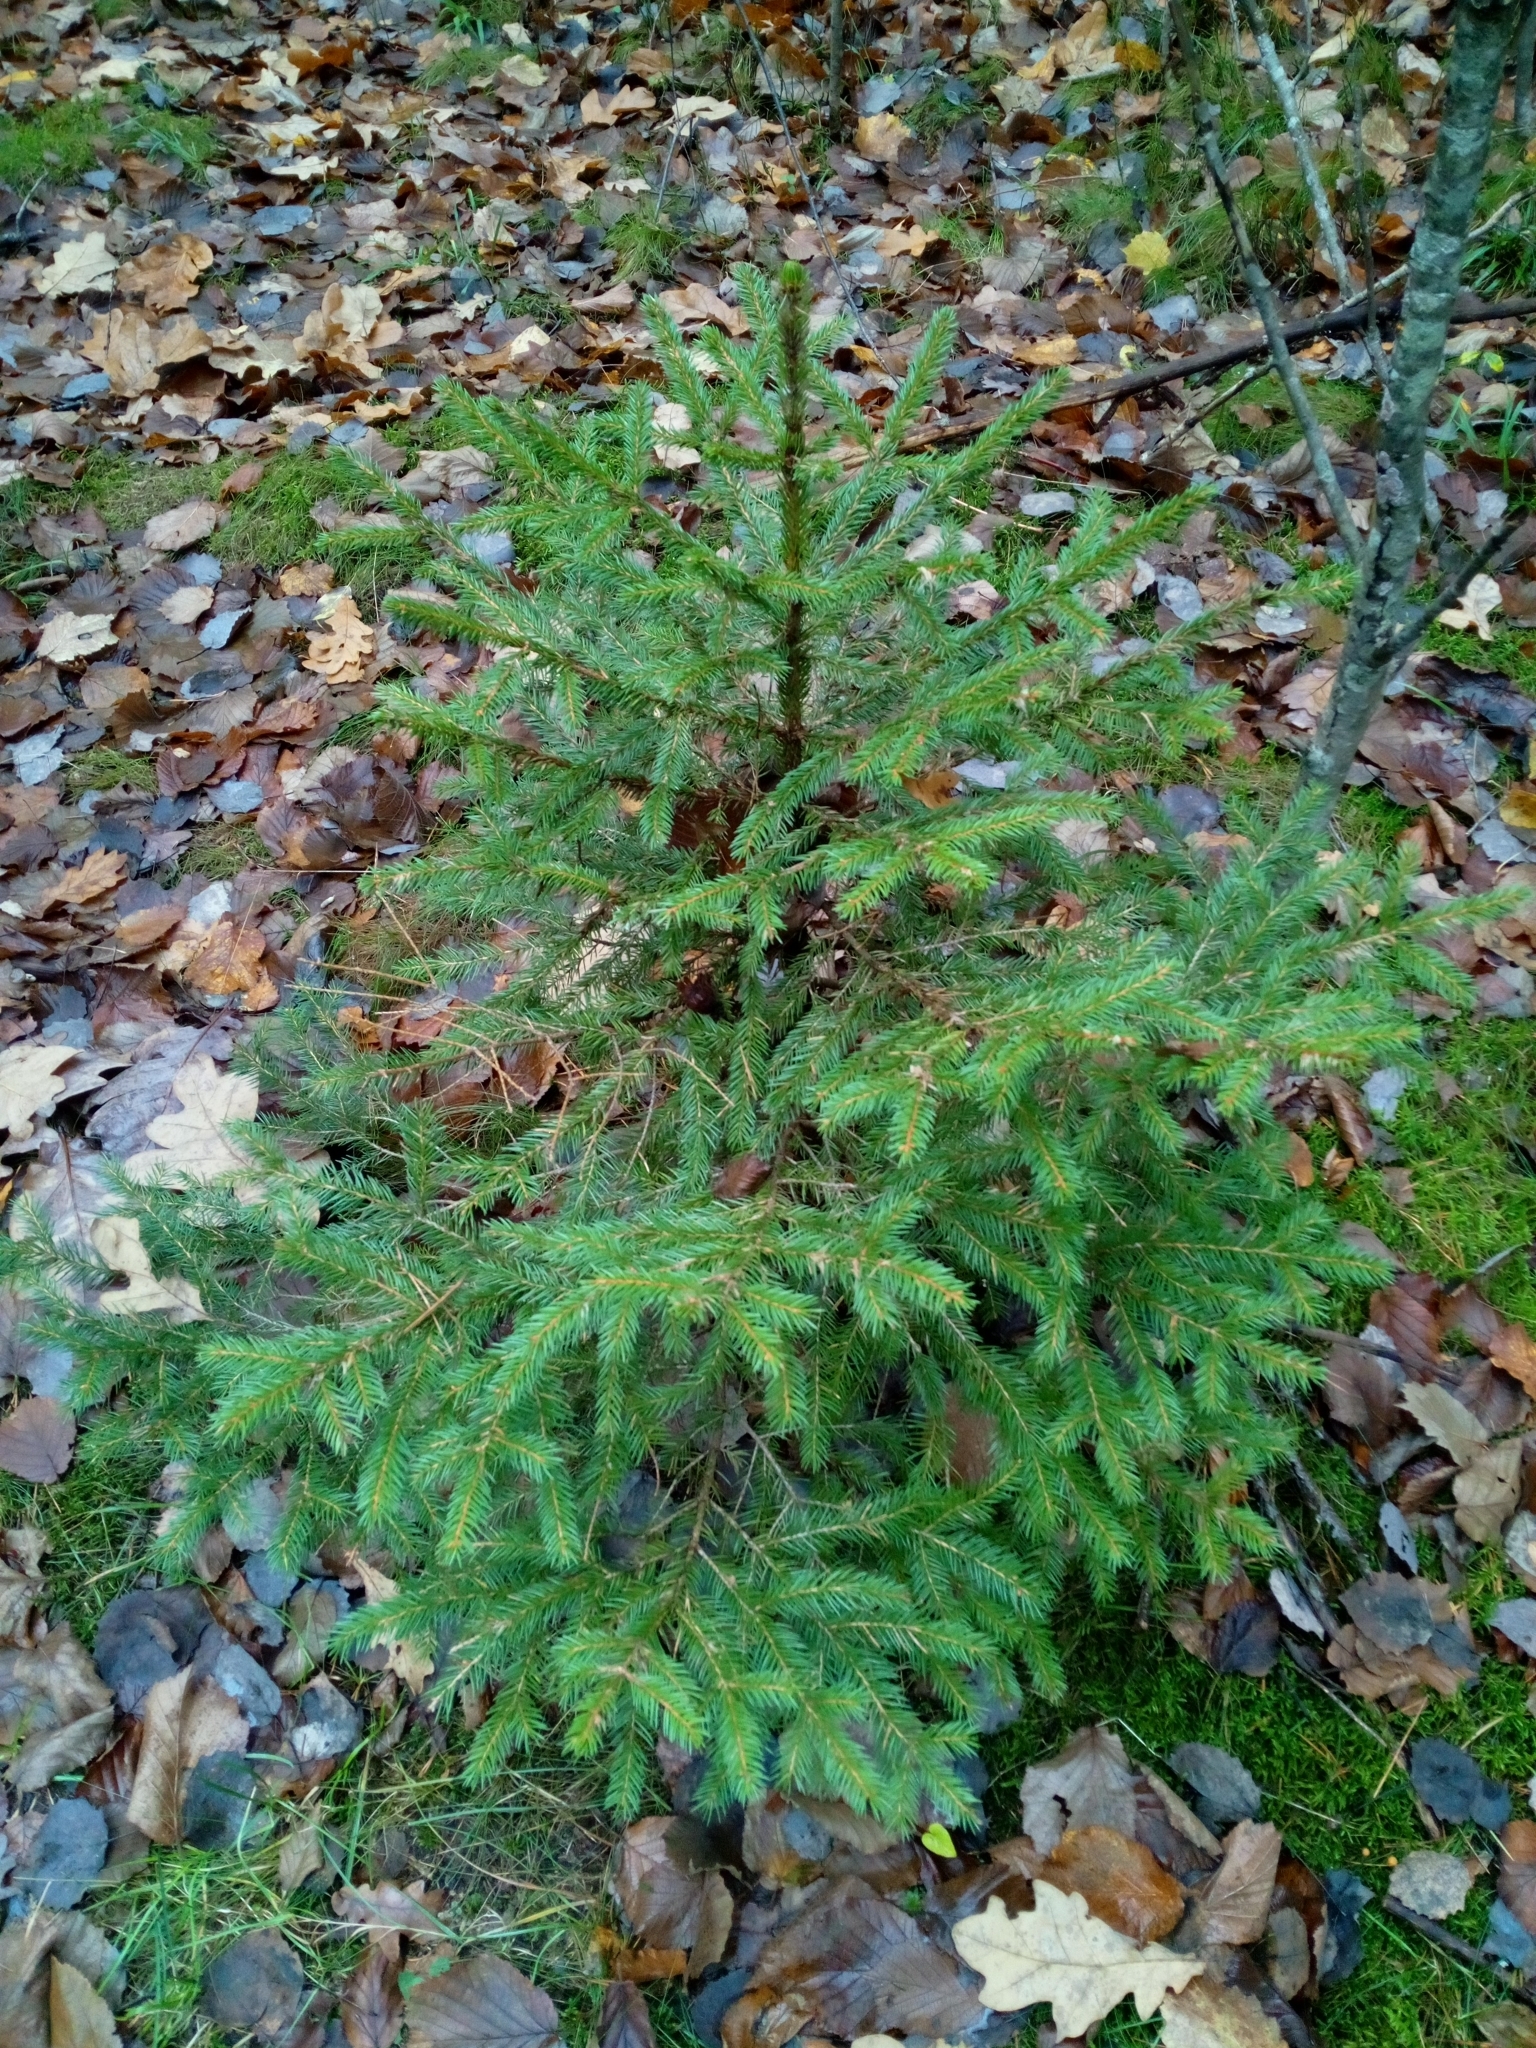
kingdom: Plantae
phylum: Tracheophyta
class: Pinopsida
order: Pinales
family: Pinaceae
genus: Picea
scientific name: Picea abies
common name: Norway spruce
